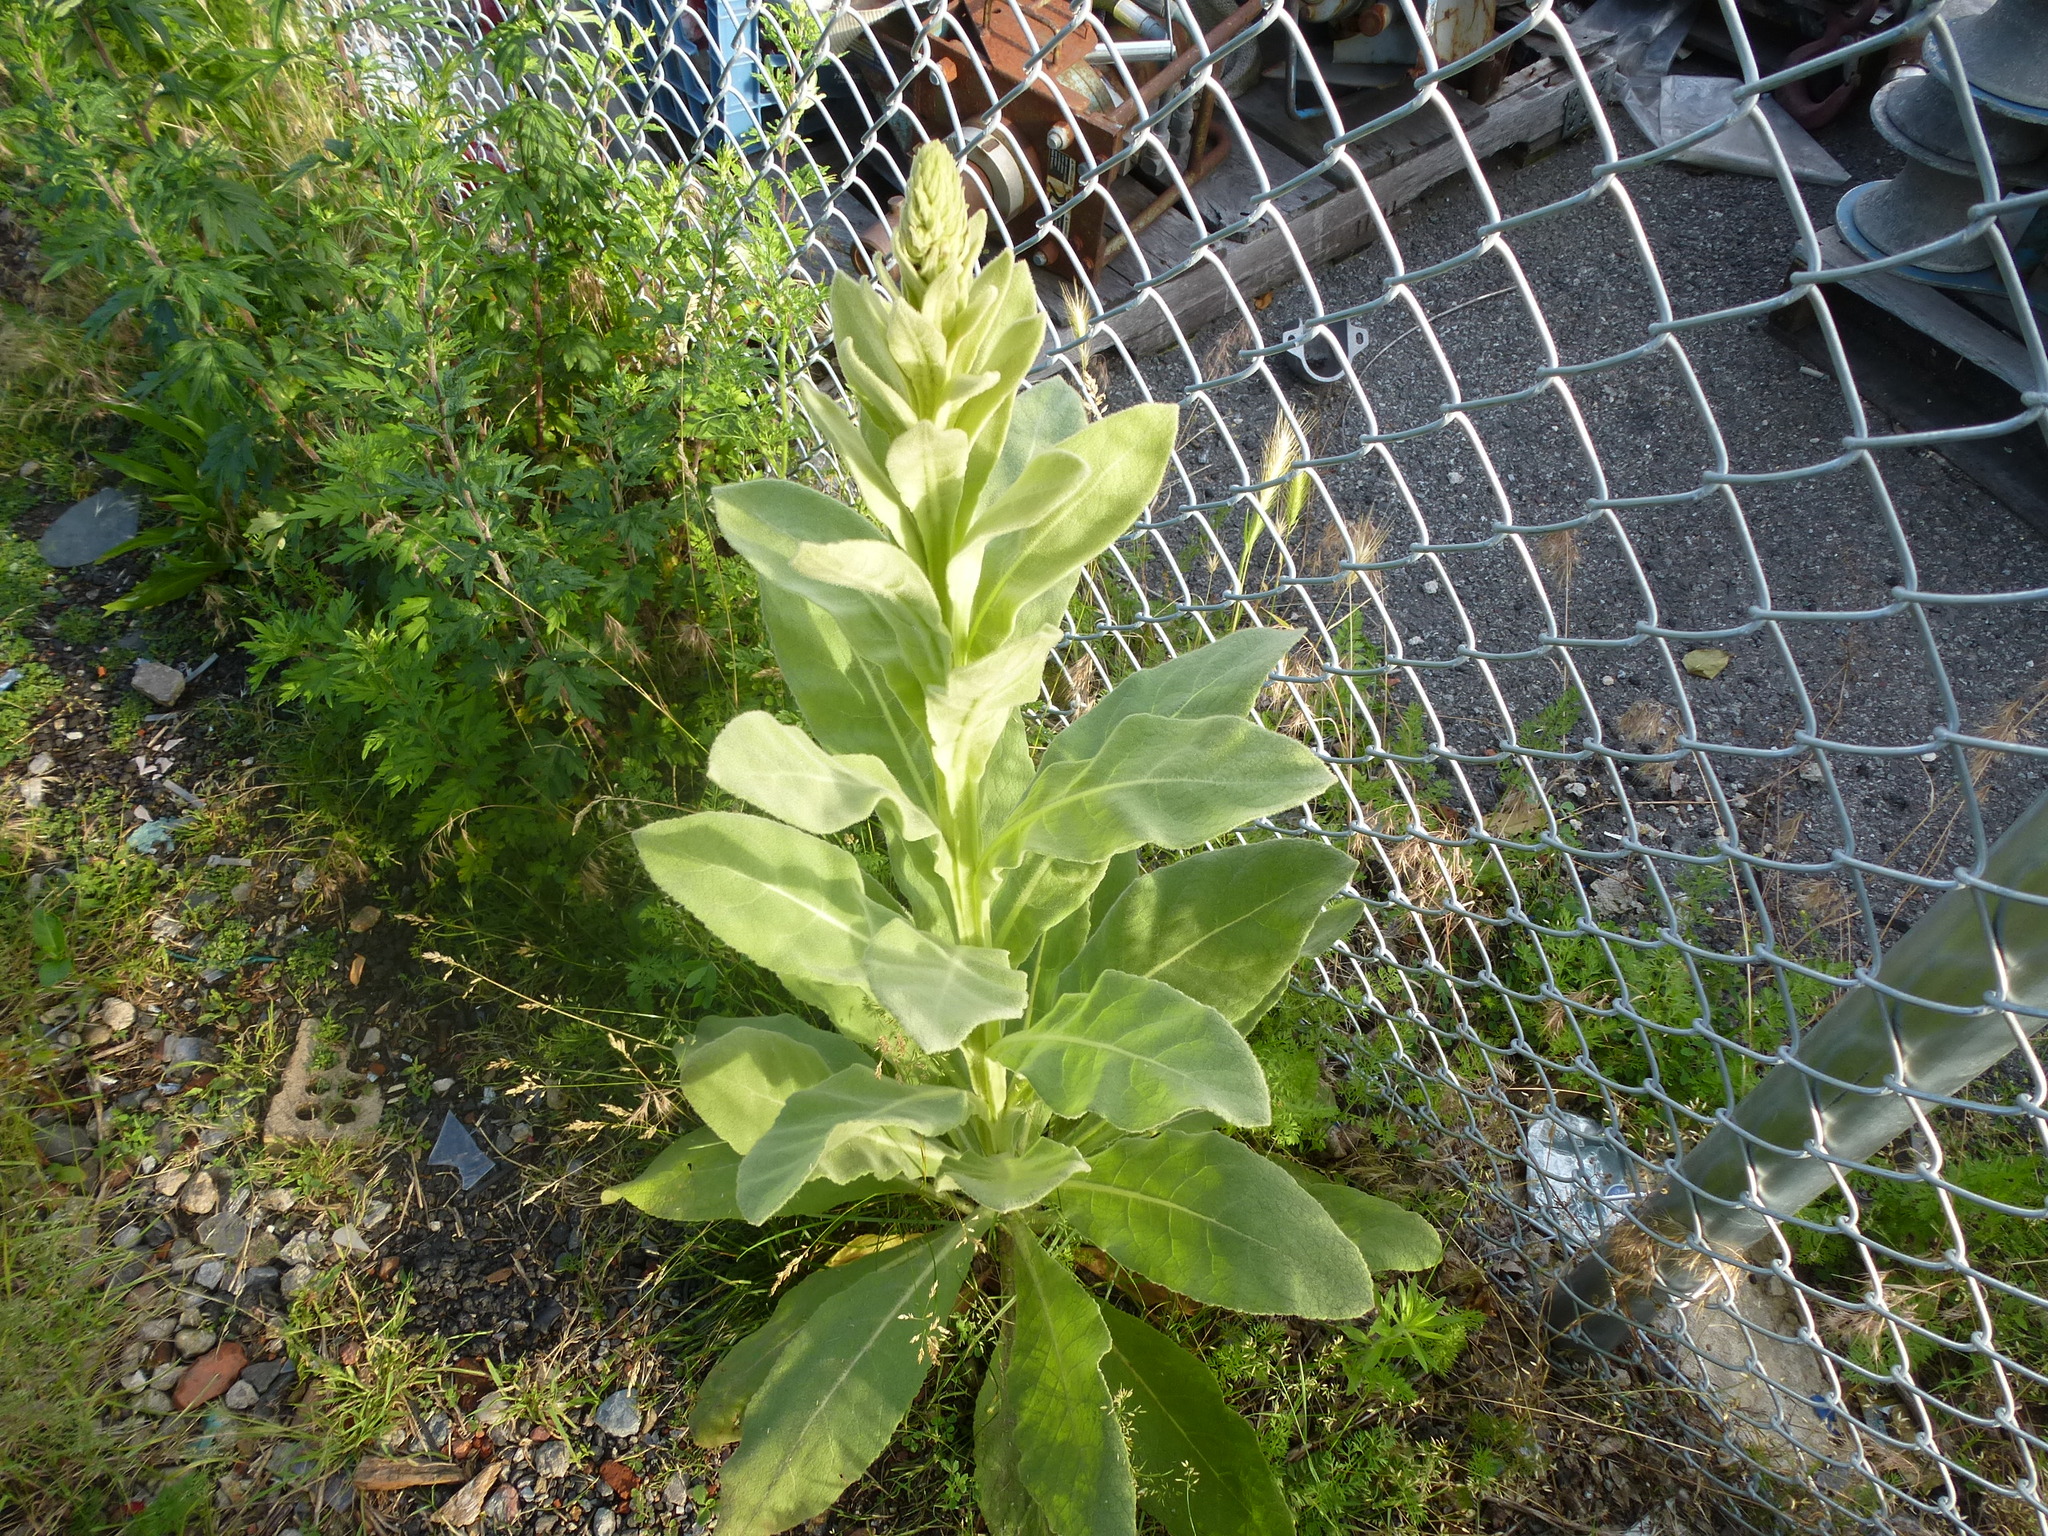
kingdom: Plantae
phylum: Tracheophyta
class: Magnoliopsida
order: Lamiales
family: Scrophulariaceae
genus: Verbascum
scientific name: Verbascum thapsus
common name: Common mullein
